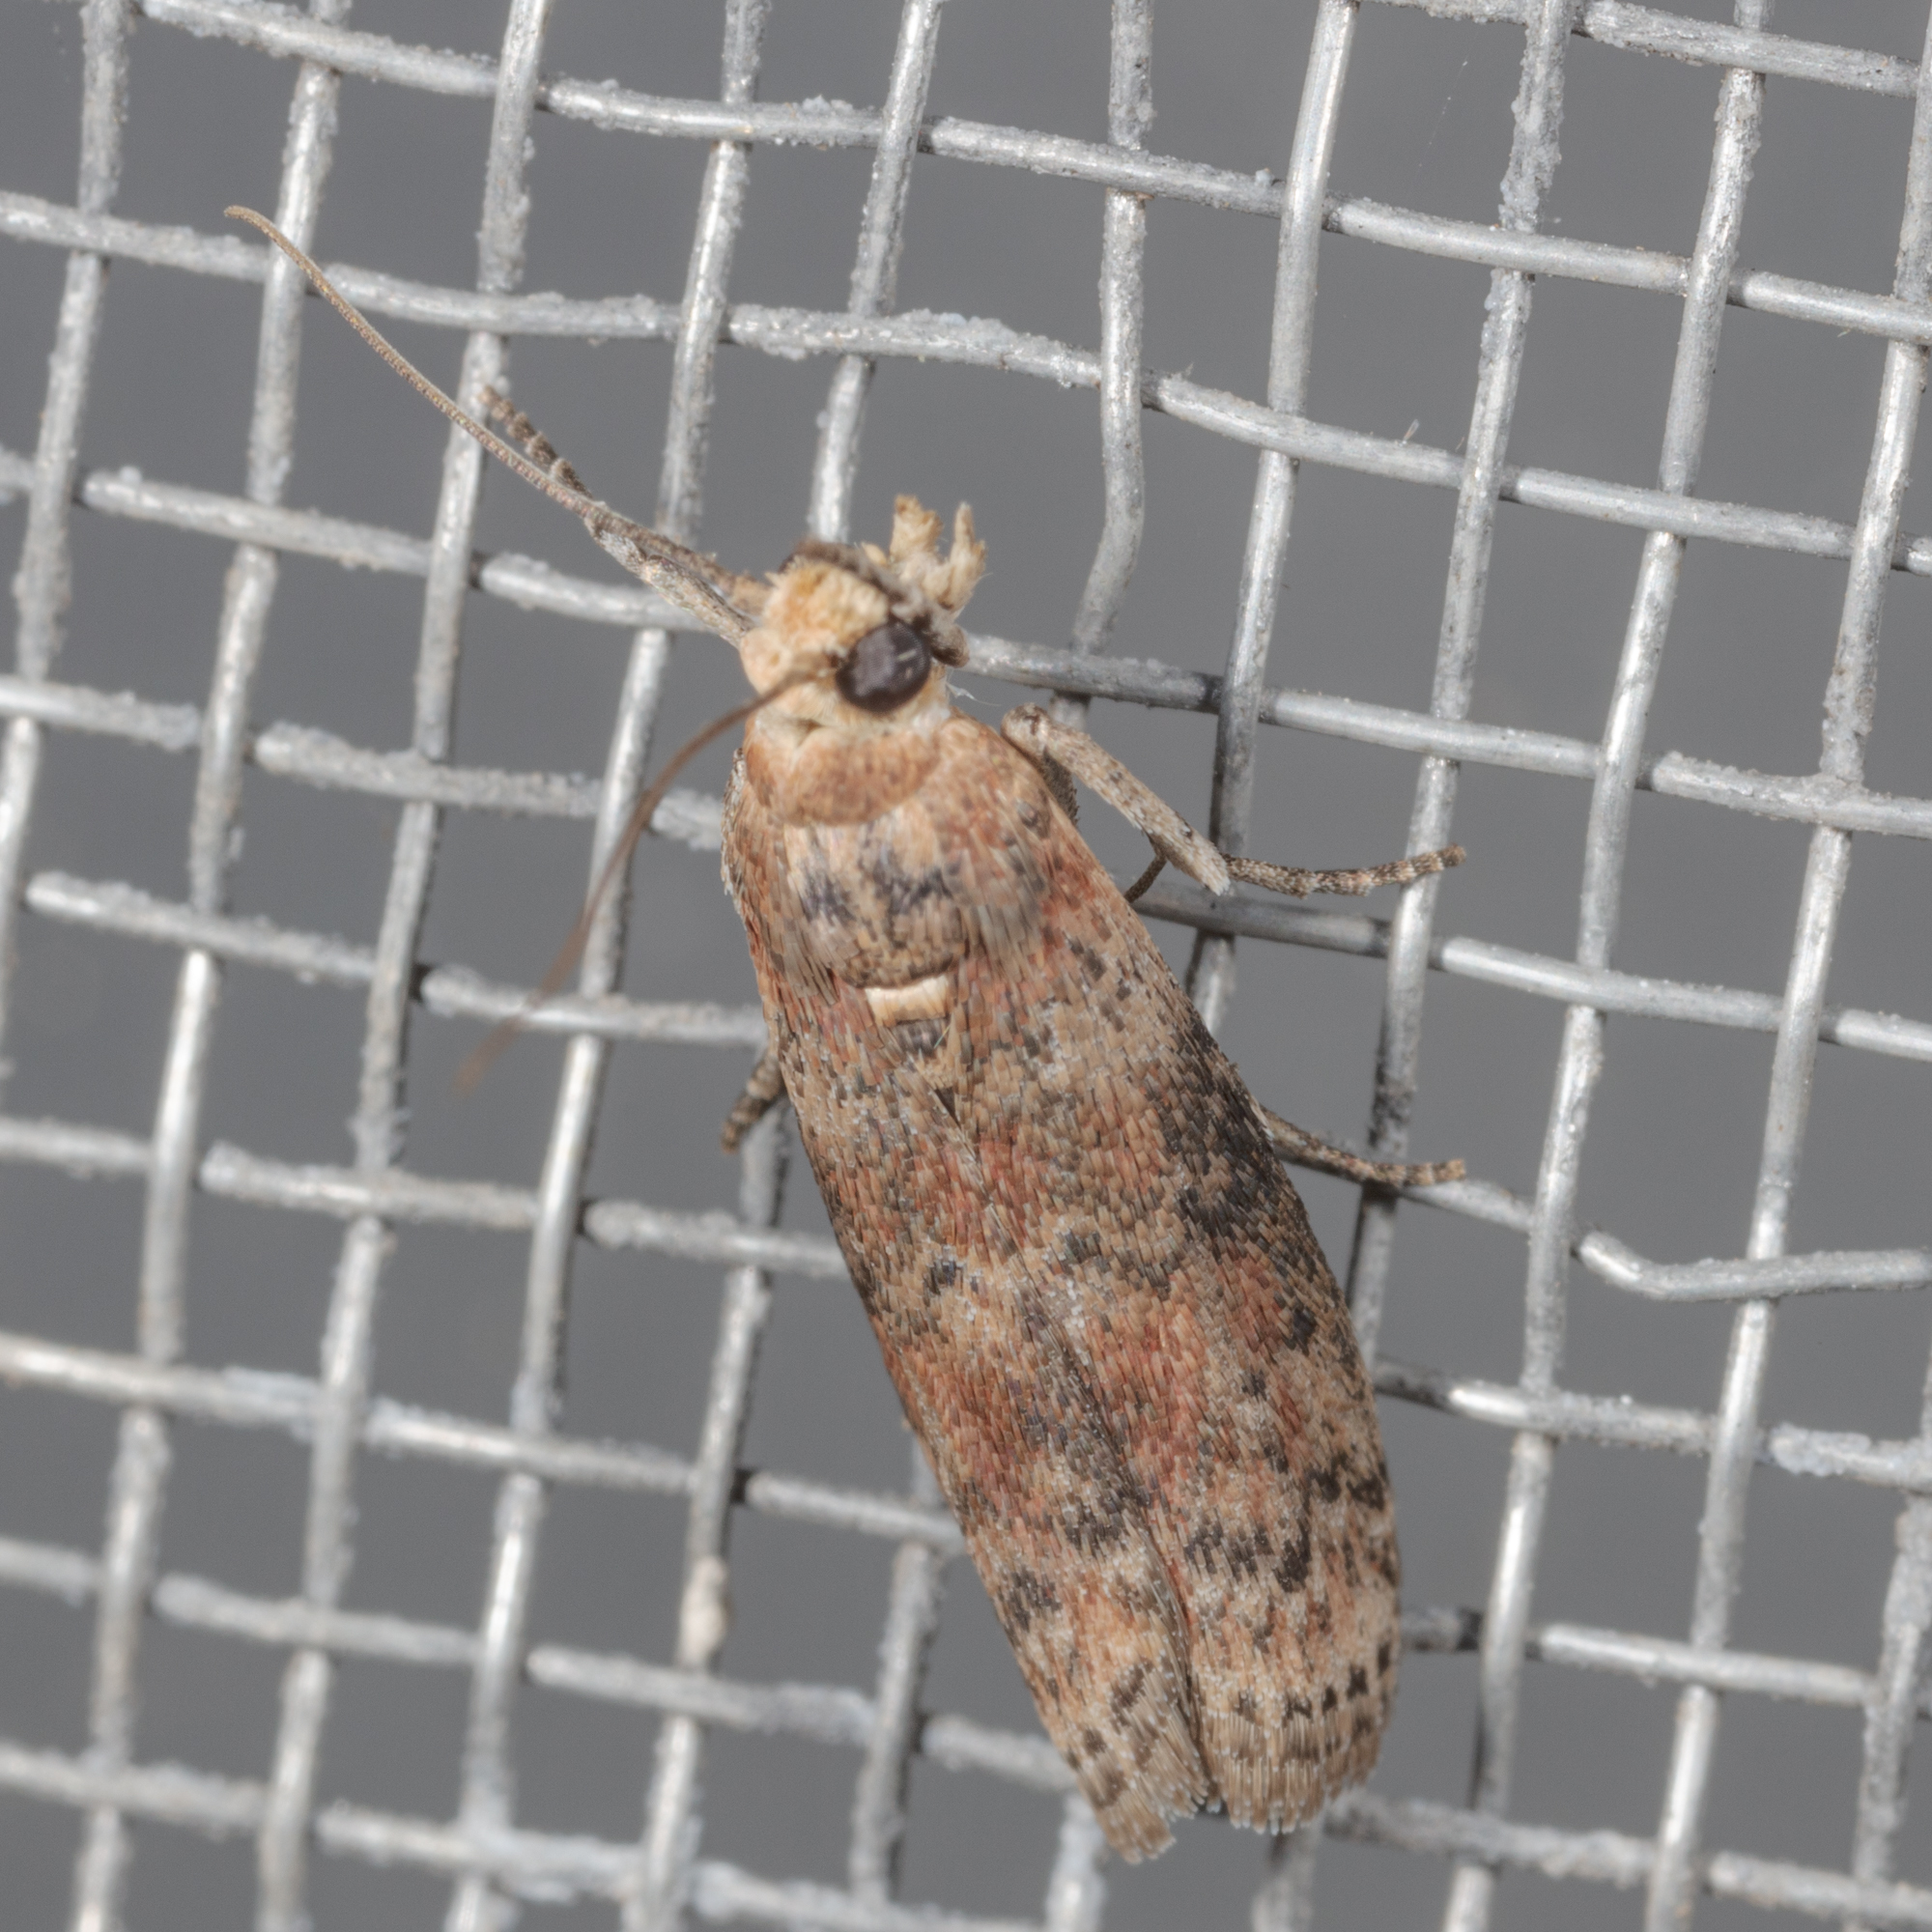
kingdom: Animalia
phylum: Arthropoda
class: Insecta
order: Lepidoptera
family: Pyralidae
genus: Sciota
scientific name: Sciota
